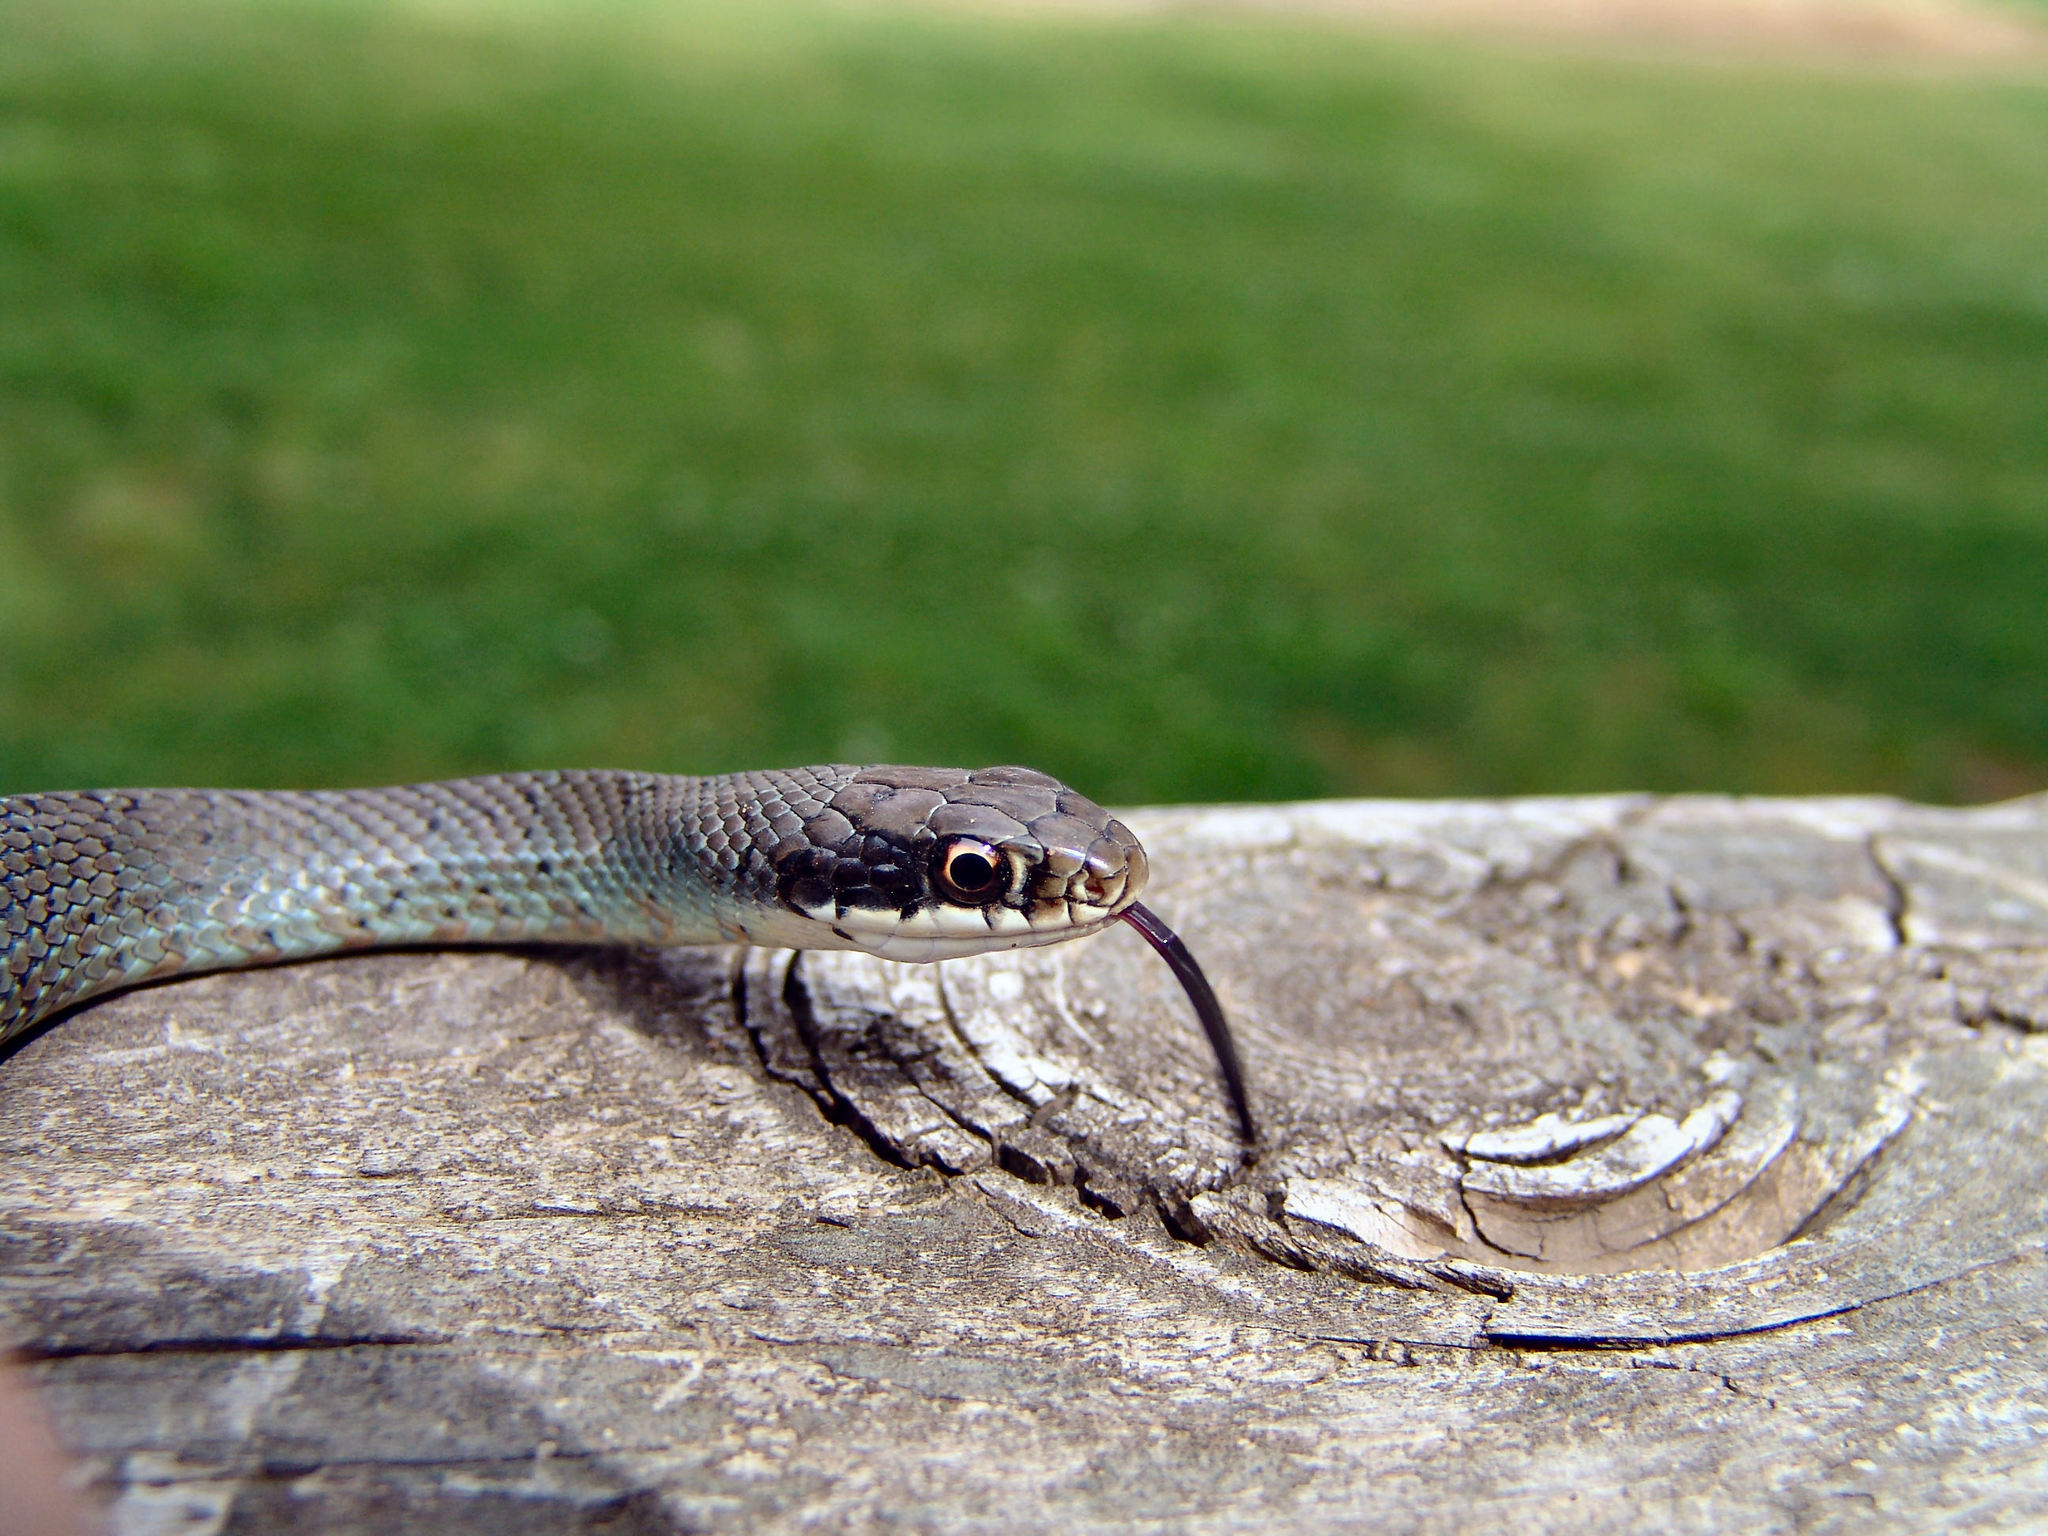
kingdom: Animalia
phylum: Chordata
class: Squamata
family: Colubridae
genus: Coluber
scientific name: Coluber constrictor
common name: Eastern racer
